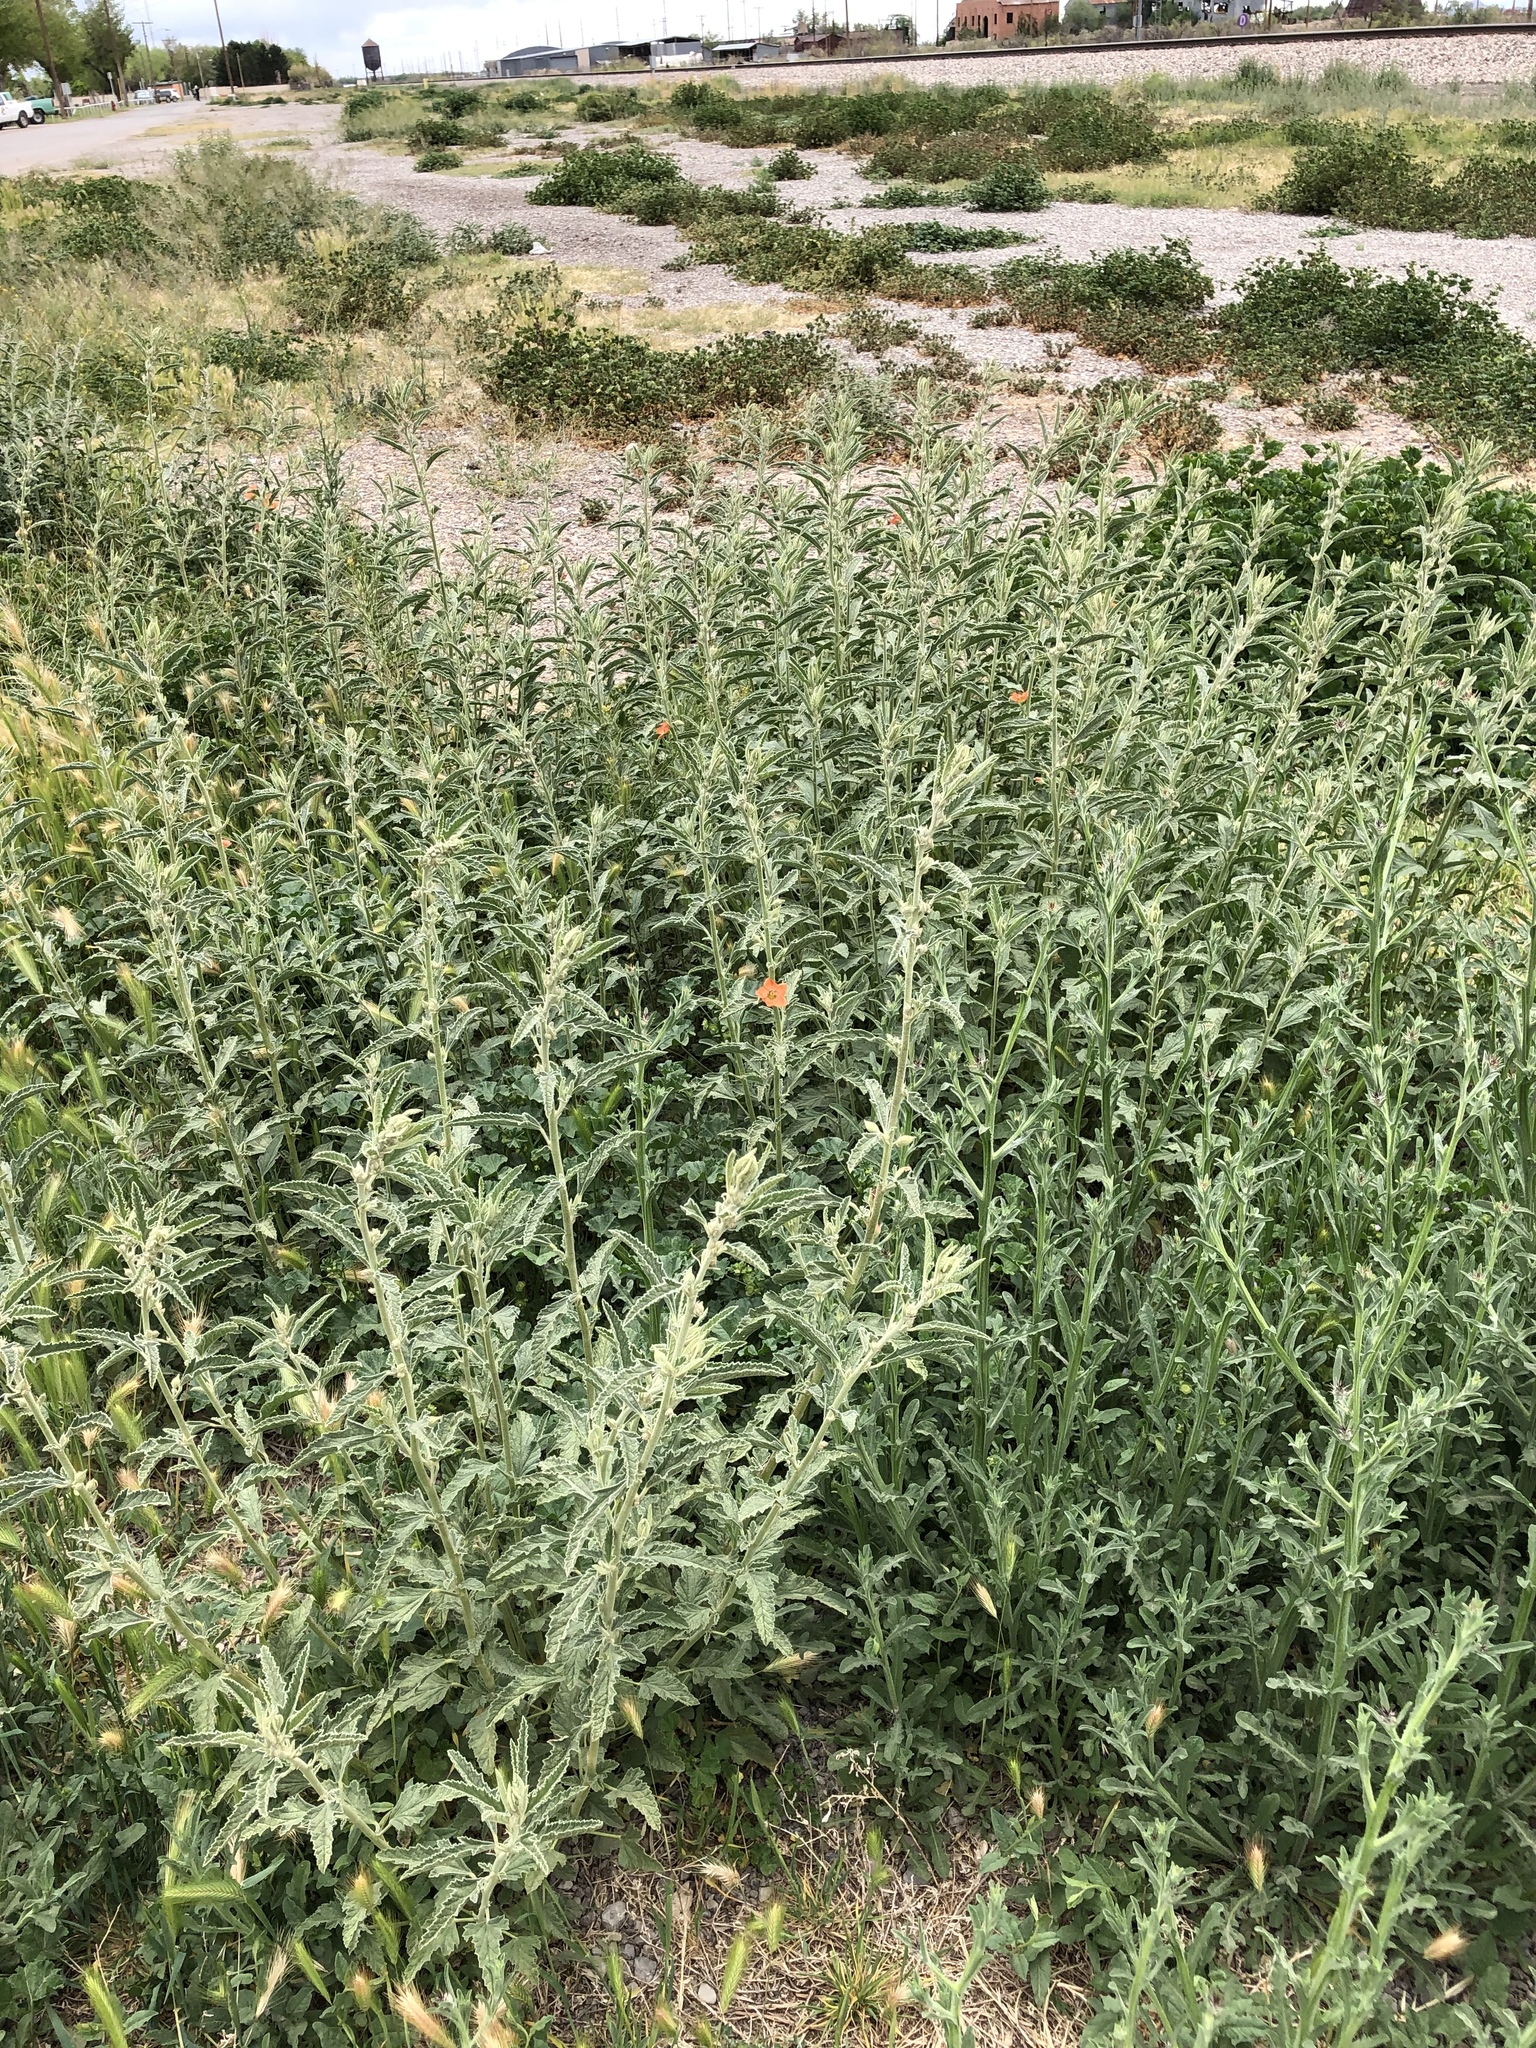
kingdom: Plantae
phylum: Tracheophyta
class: Magnoliopsida
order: Malvales
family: Malvaceae
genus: Sphaeralcea
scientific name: Sphaeralcea angustifolia
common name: Copper globe-mallow
